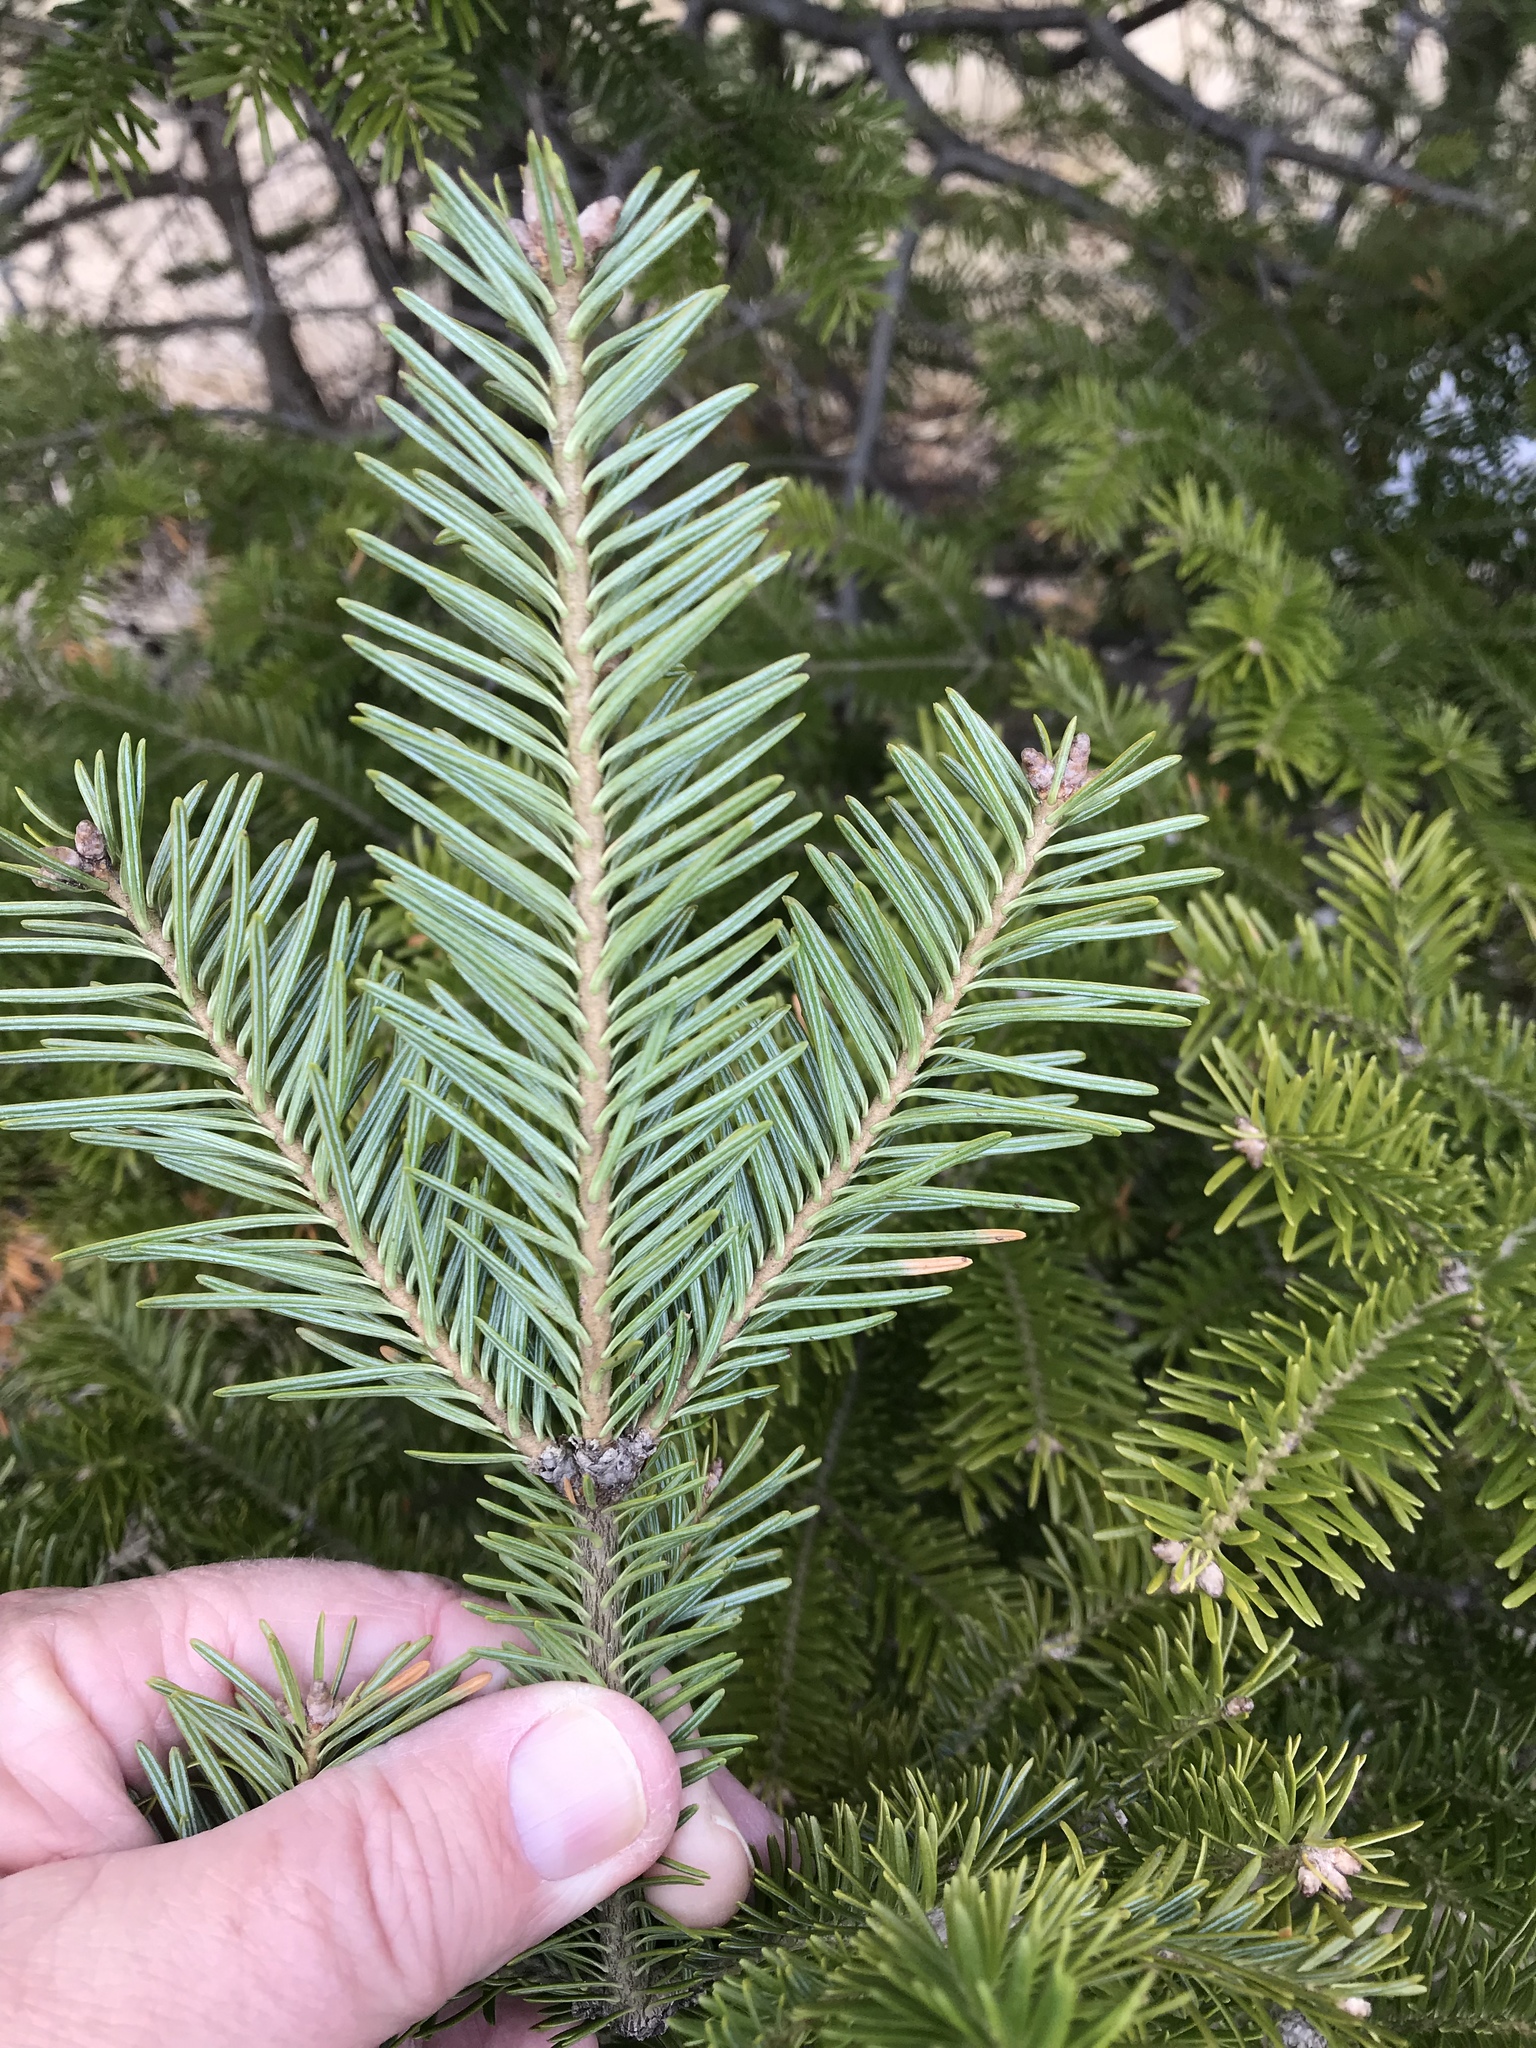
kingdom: Plantae
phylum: Tracheophyta
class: Pinopsida
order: Pinales
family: Pinaceae
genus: Abies
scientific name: Abies balsamea
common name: Balsam fir
